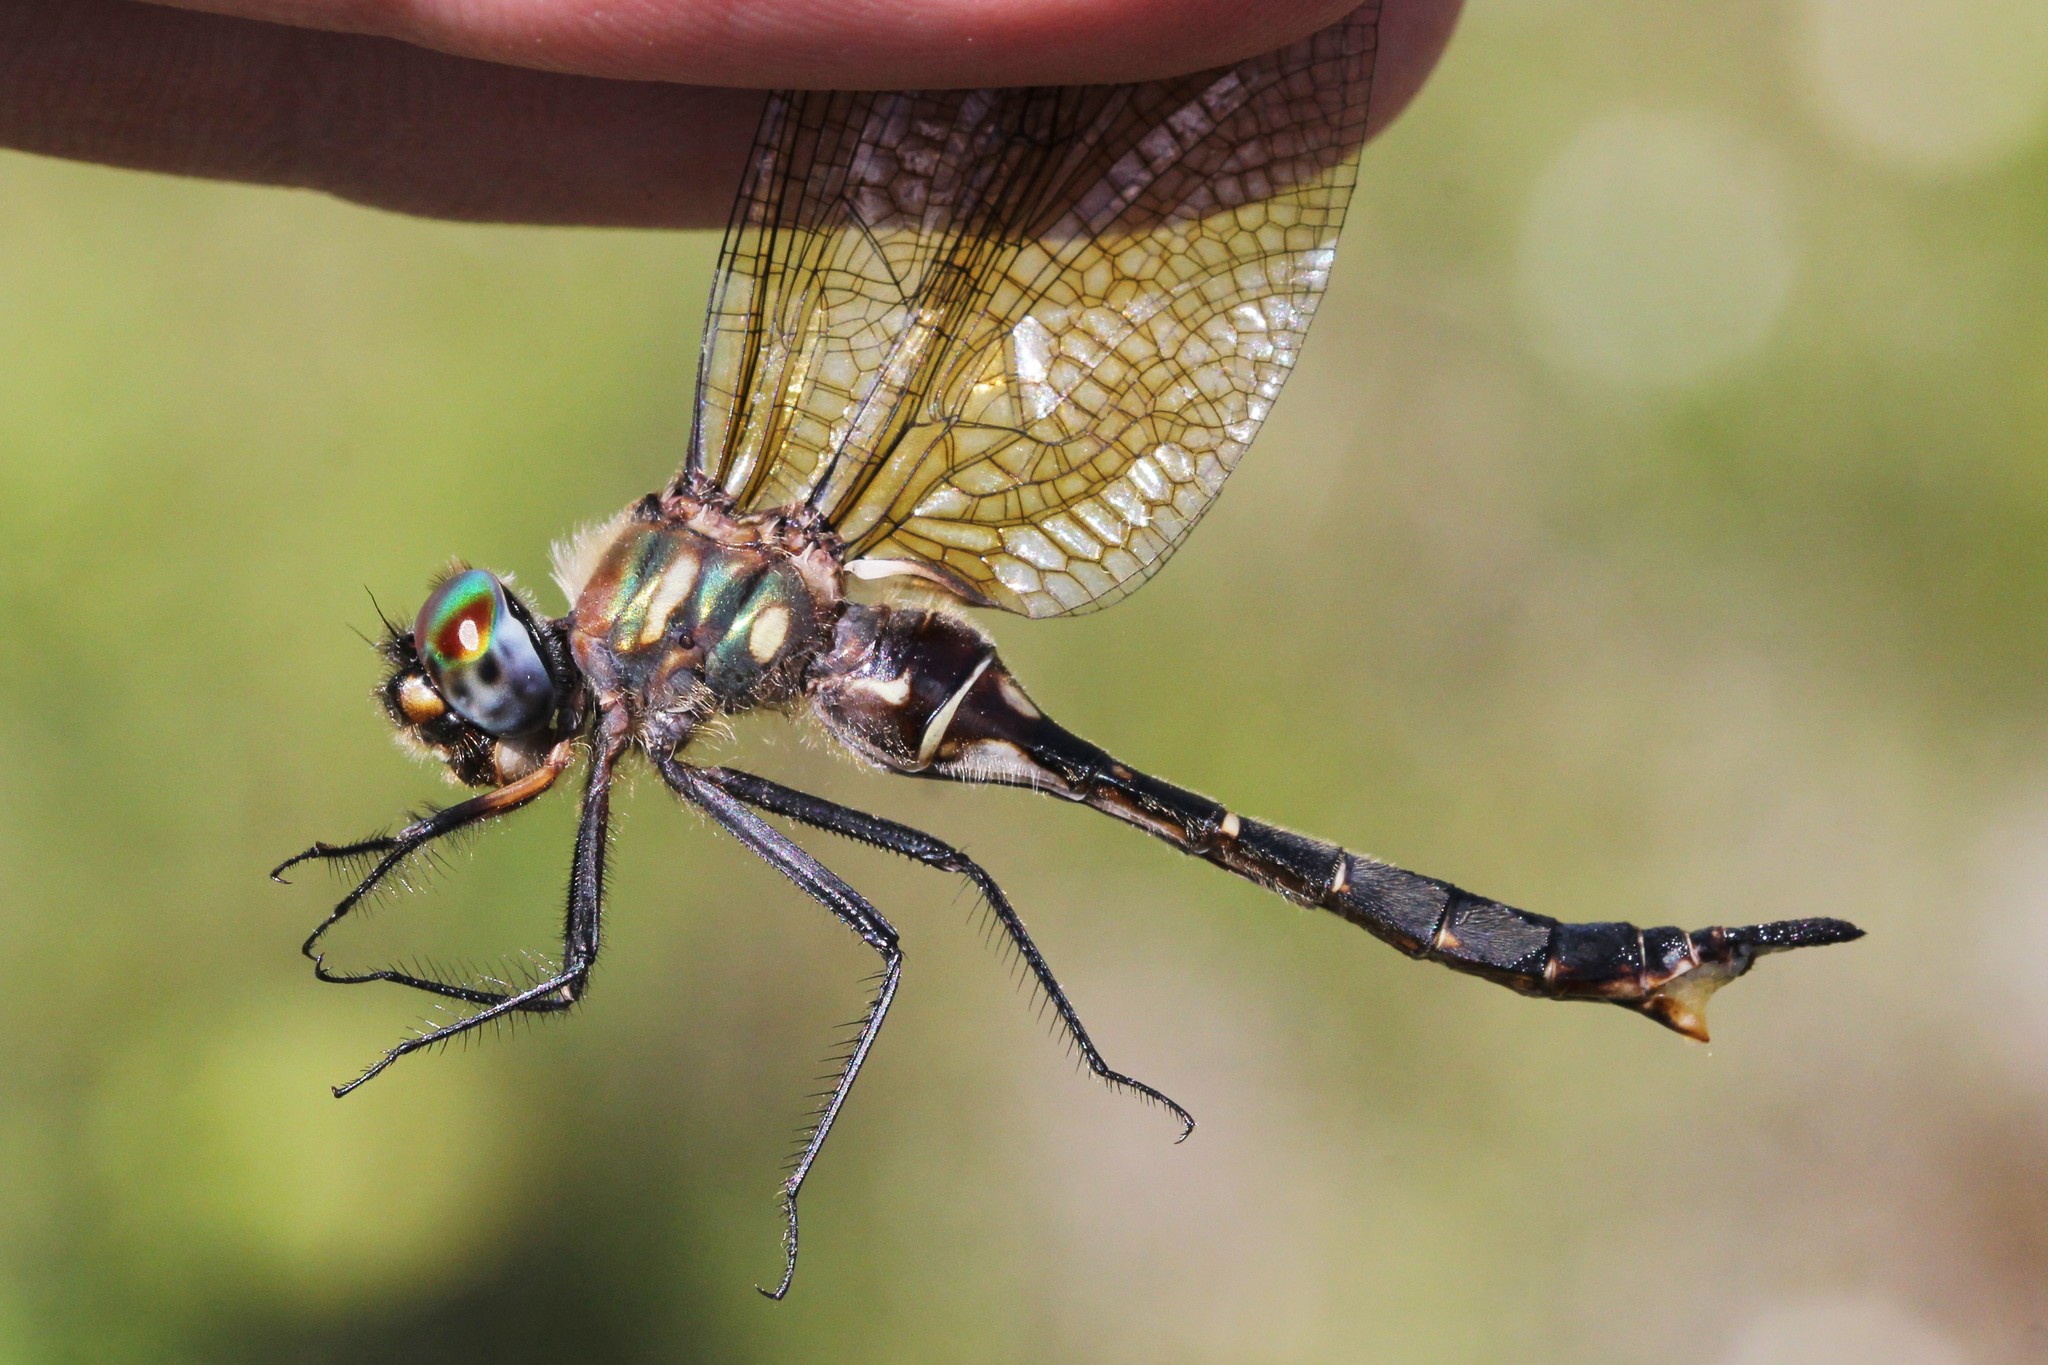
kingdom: Animalia
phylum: Arthropoda
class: Insecta
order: Odonata
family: Corduliidae
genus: Somatochlora
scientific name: Somatochlora walshii
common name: Brush-tipped emerald
